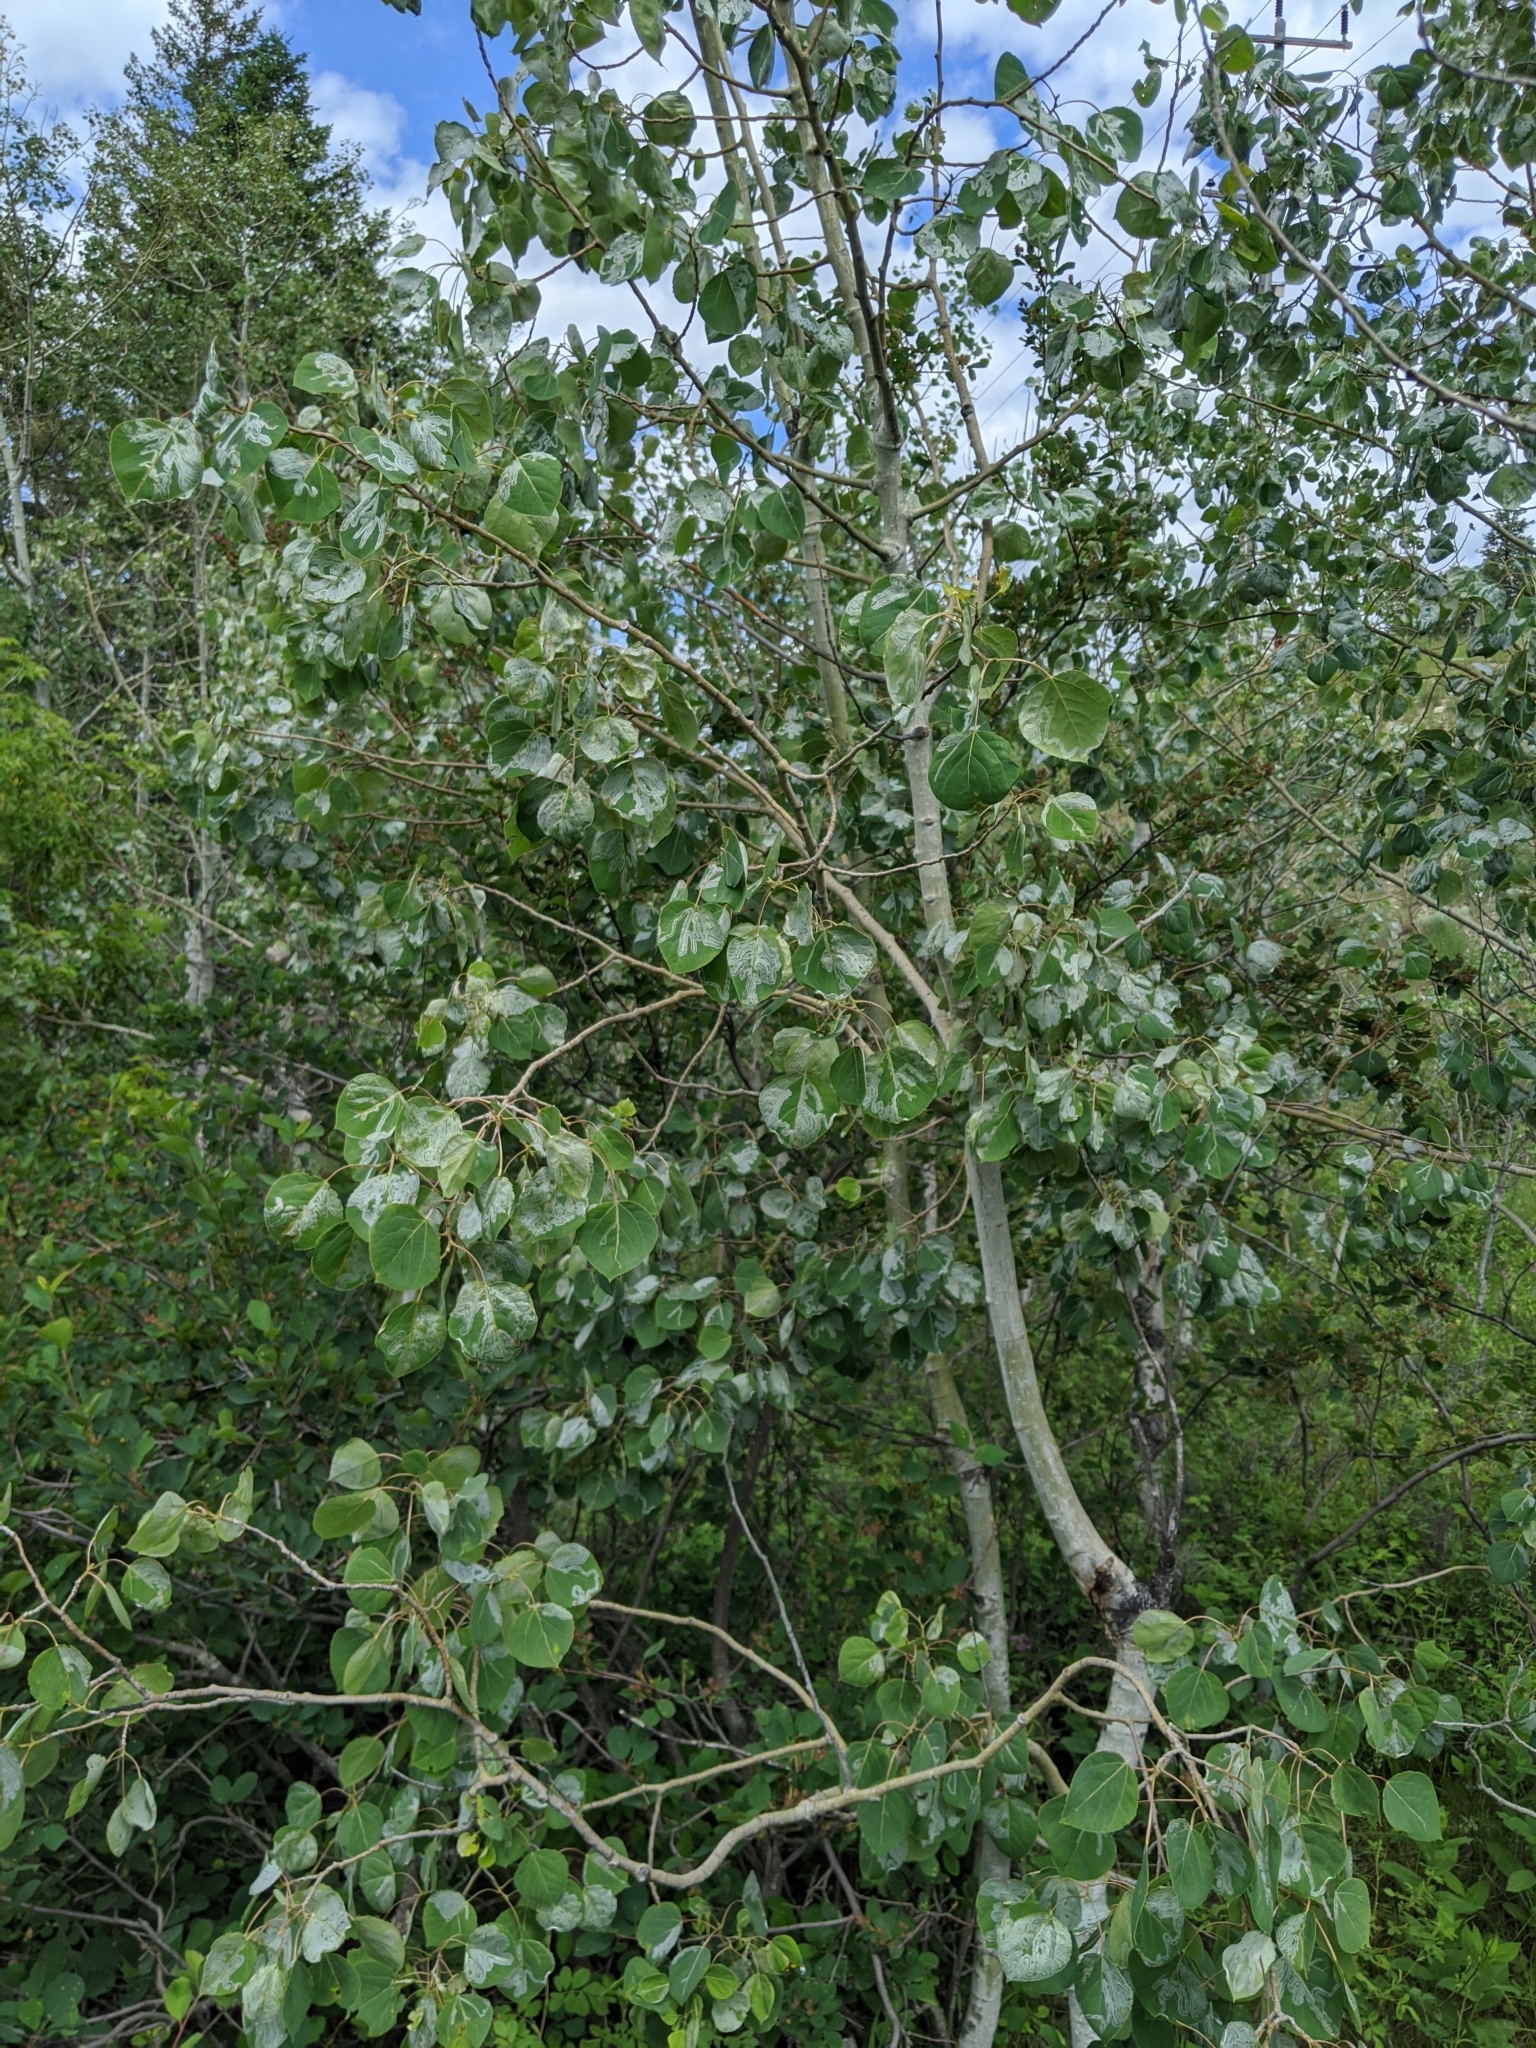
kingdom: Animalia
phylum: Arthropoda
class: Insecta
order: Lepidoptera
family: Gracillariidae
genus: Phyllocnistis
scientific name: Phyllocnistis populiella
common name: Aspen serpentine leafminer moth
